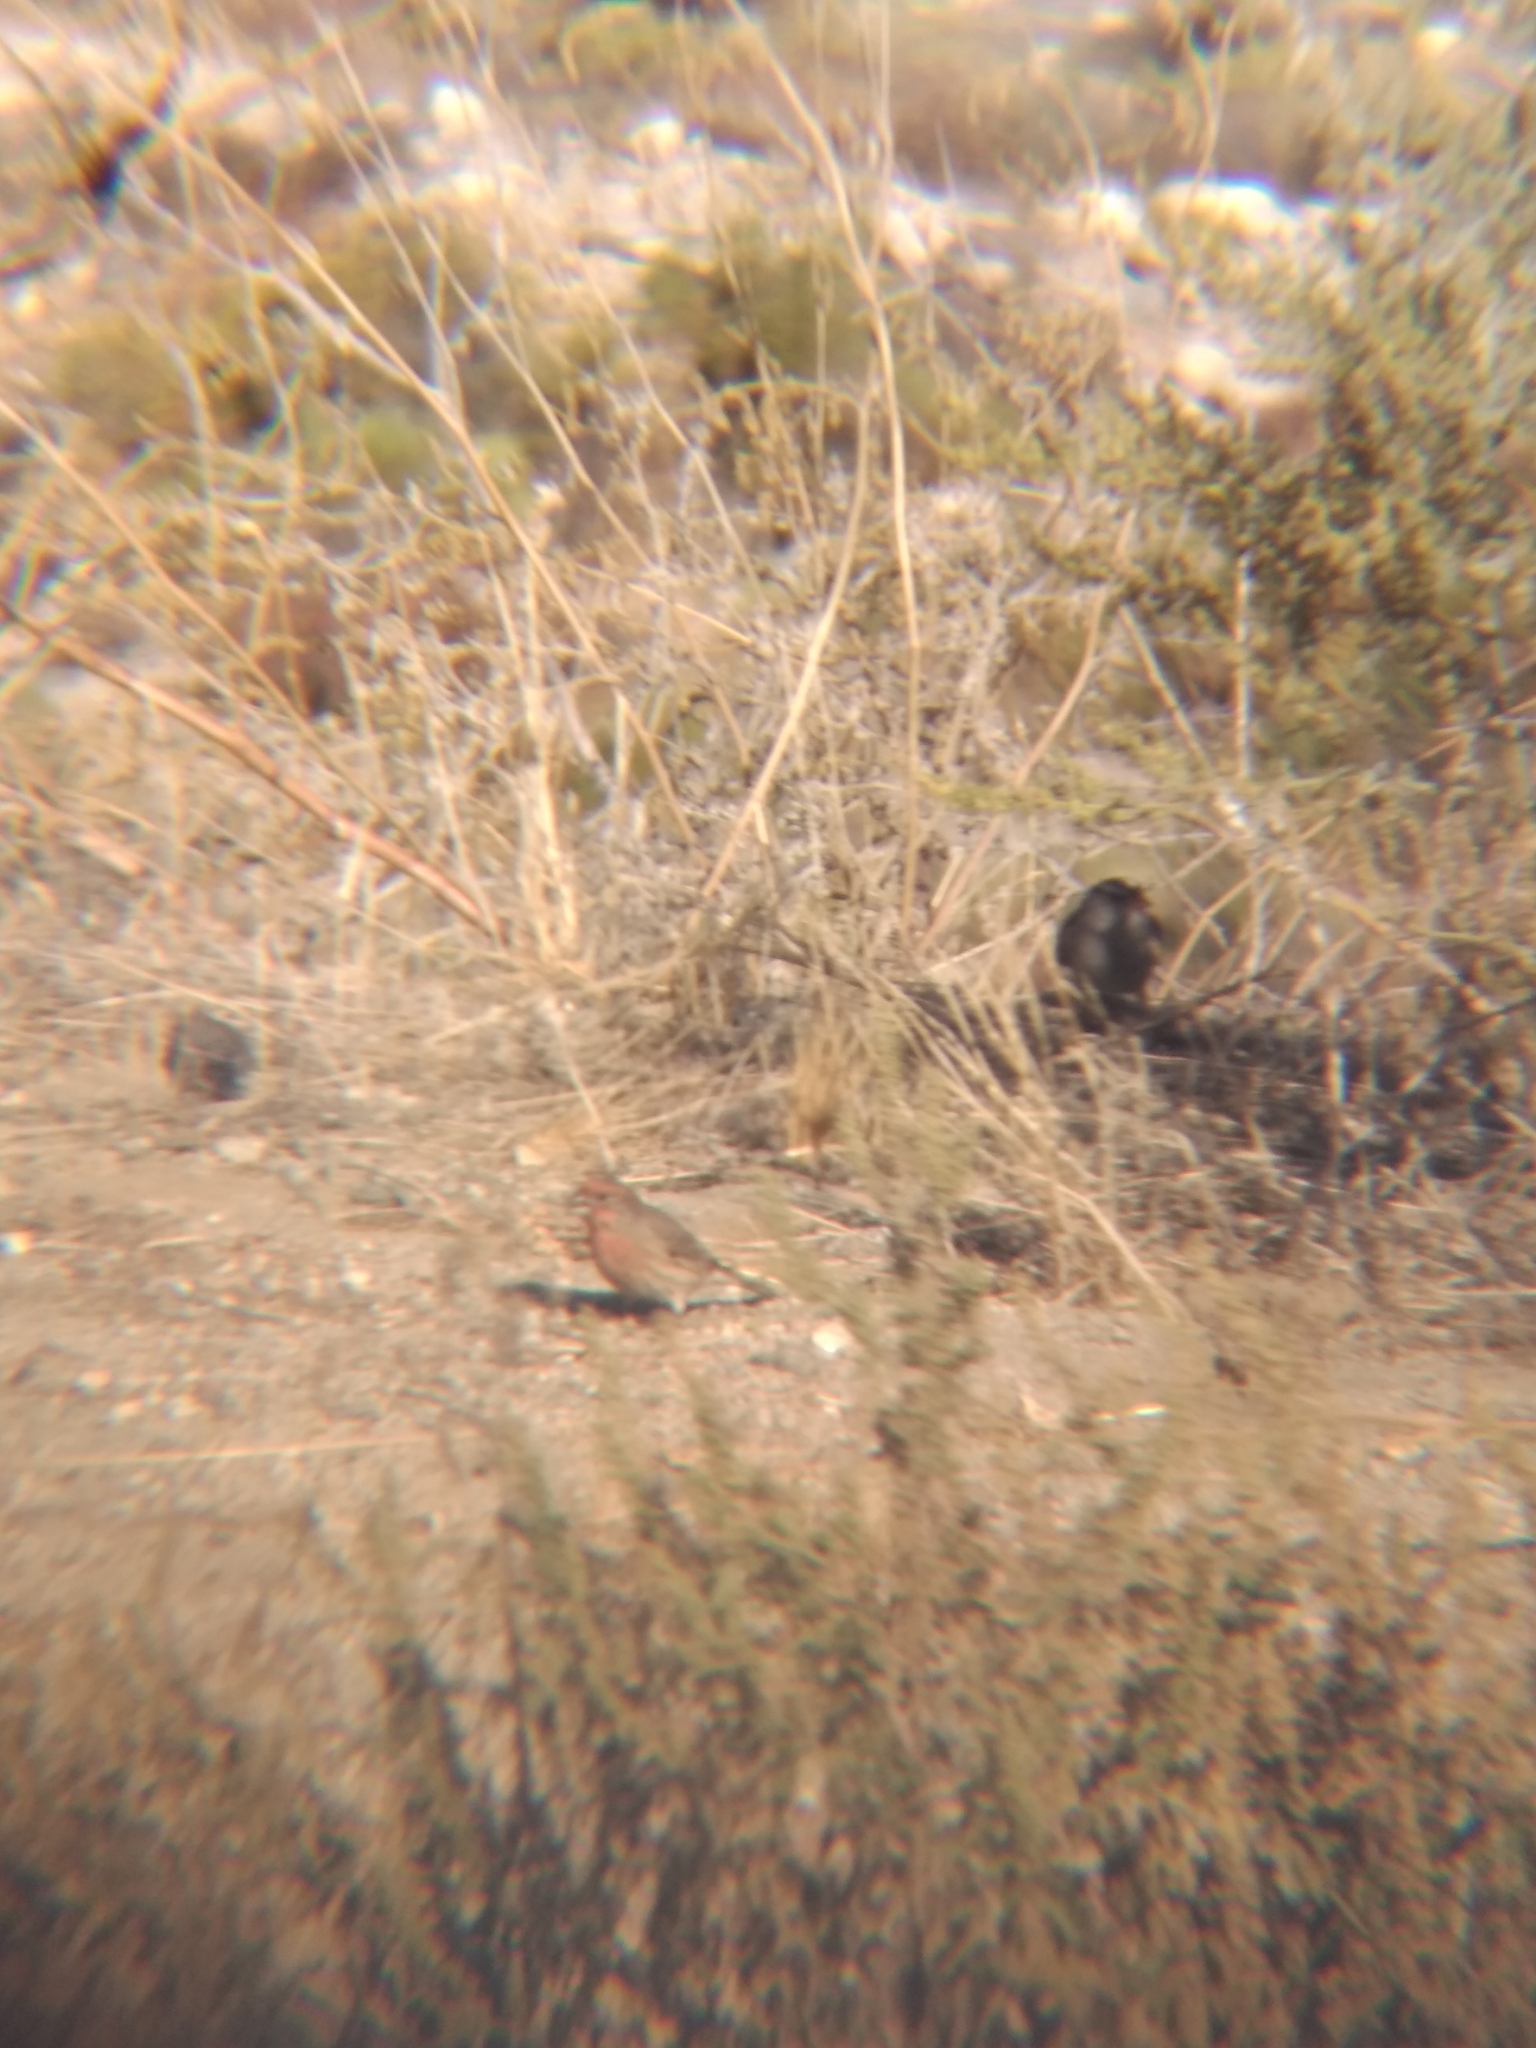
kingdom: Animalia
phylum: Chordata
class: Aves
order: Passeriformes
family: Fringillidae
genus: Haemorhous
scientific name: Haemorhous mexicanus
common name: House finch
